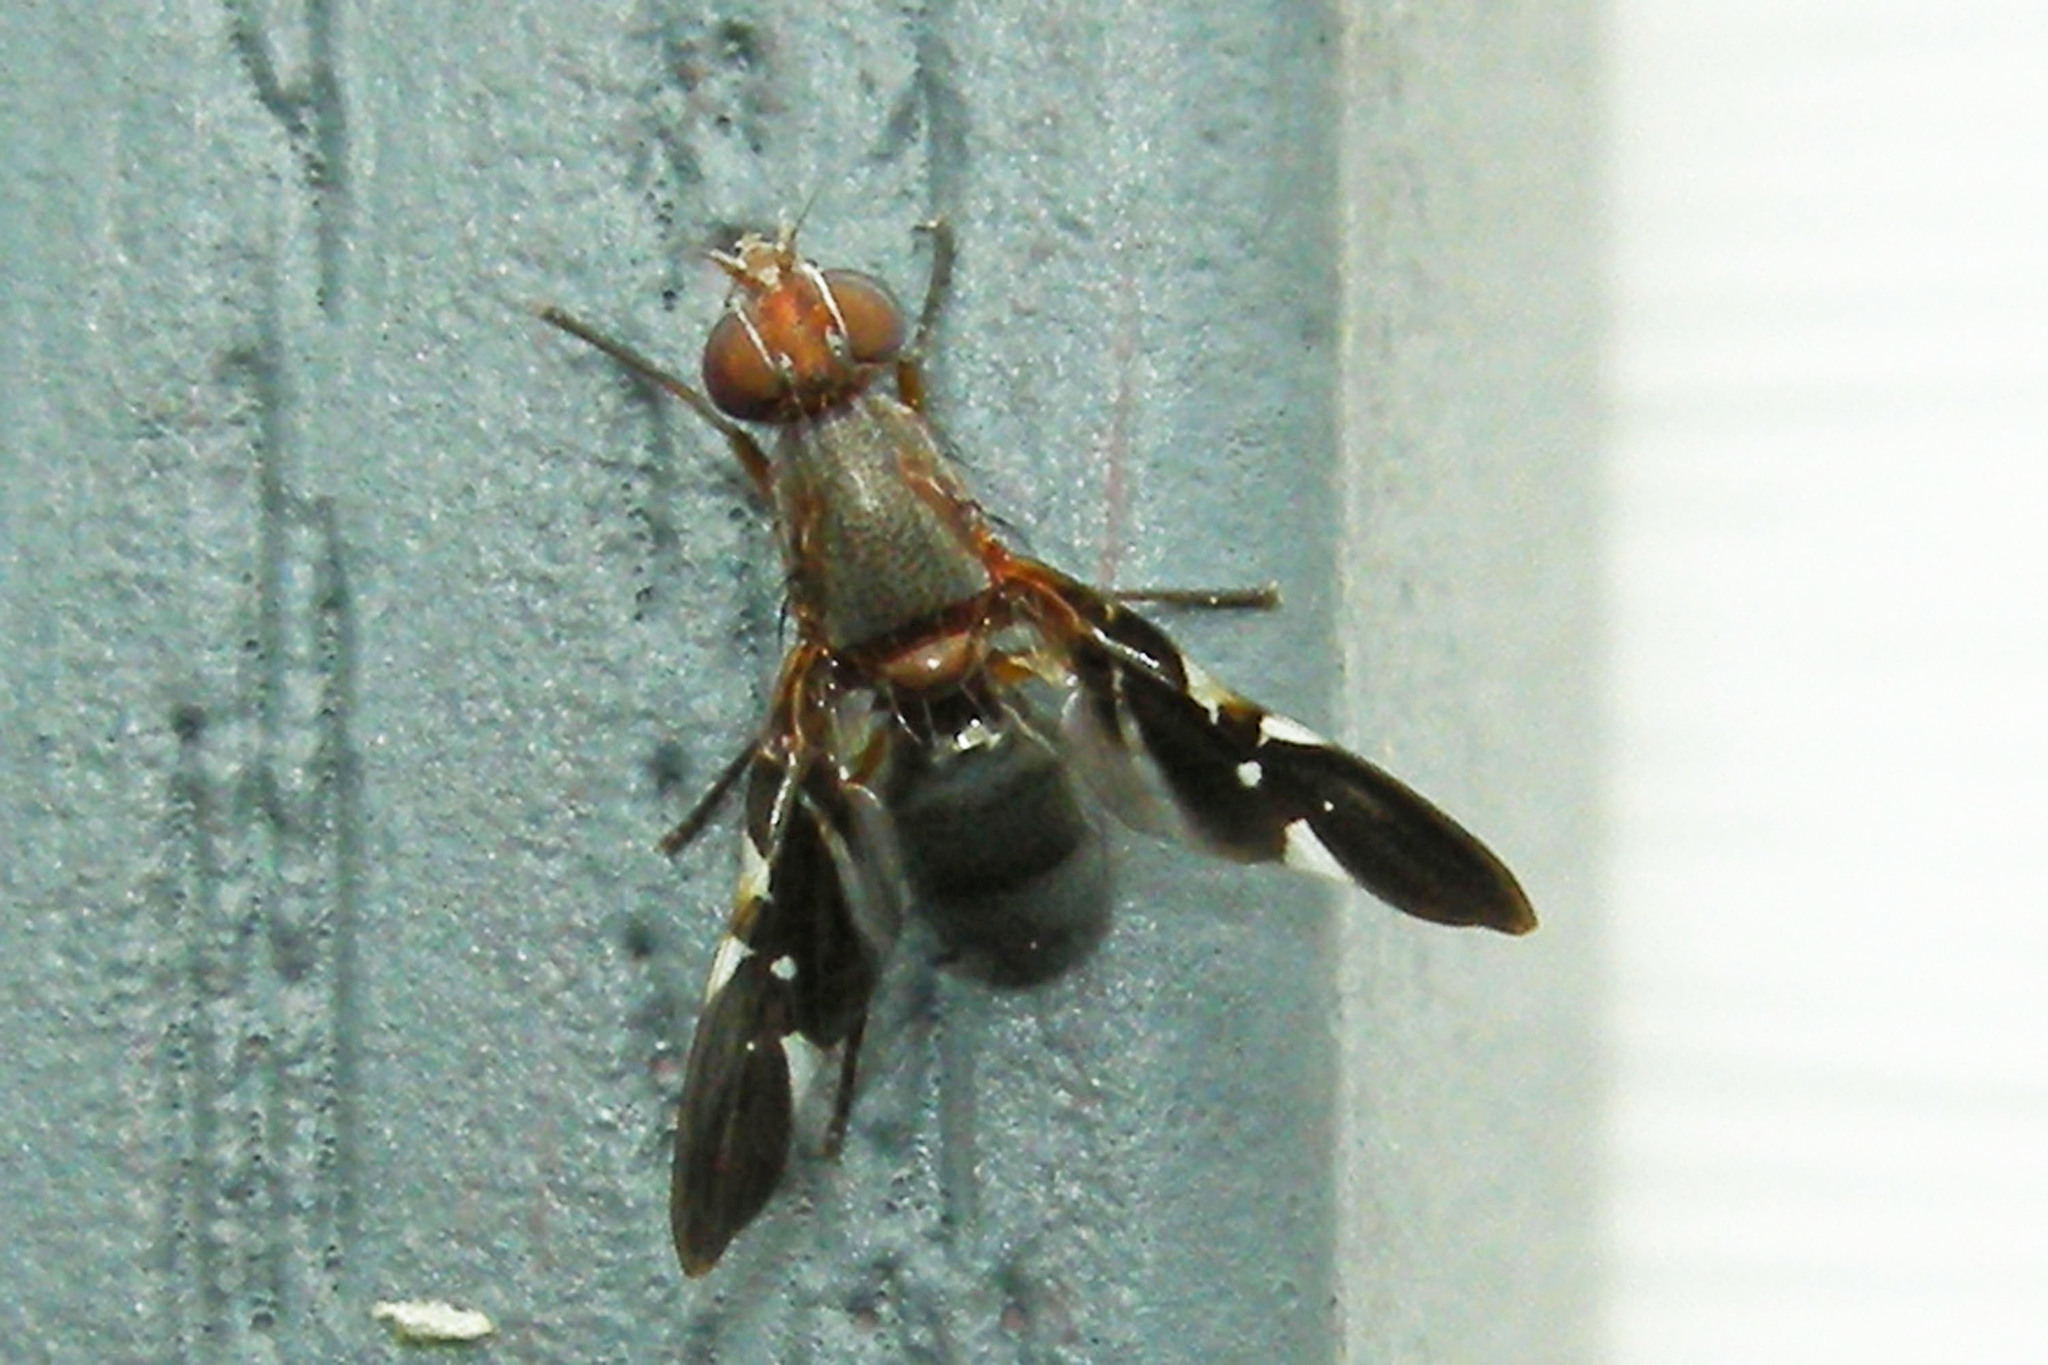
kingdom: Animalia
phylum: Arthropoda
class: Insecta
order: Diptera
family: Ulidiidae
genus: Delphinia
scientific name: Delphinia picta
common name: Common picture-winged fly
